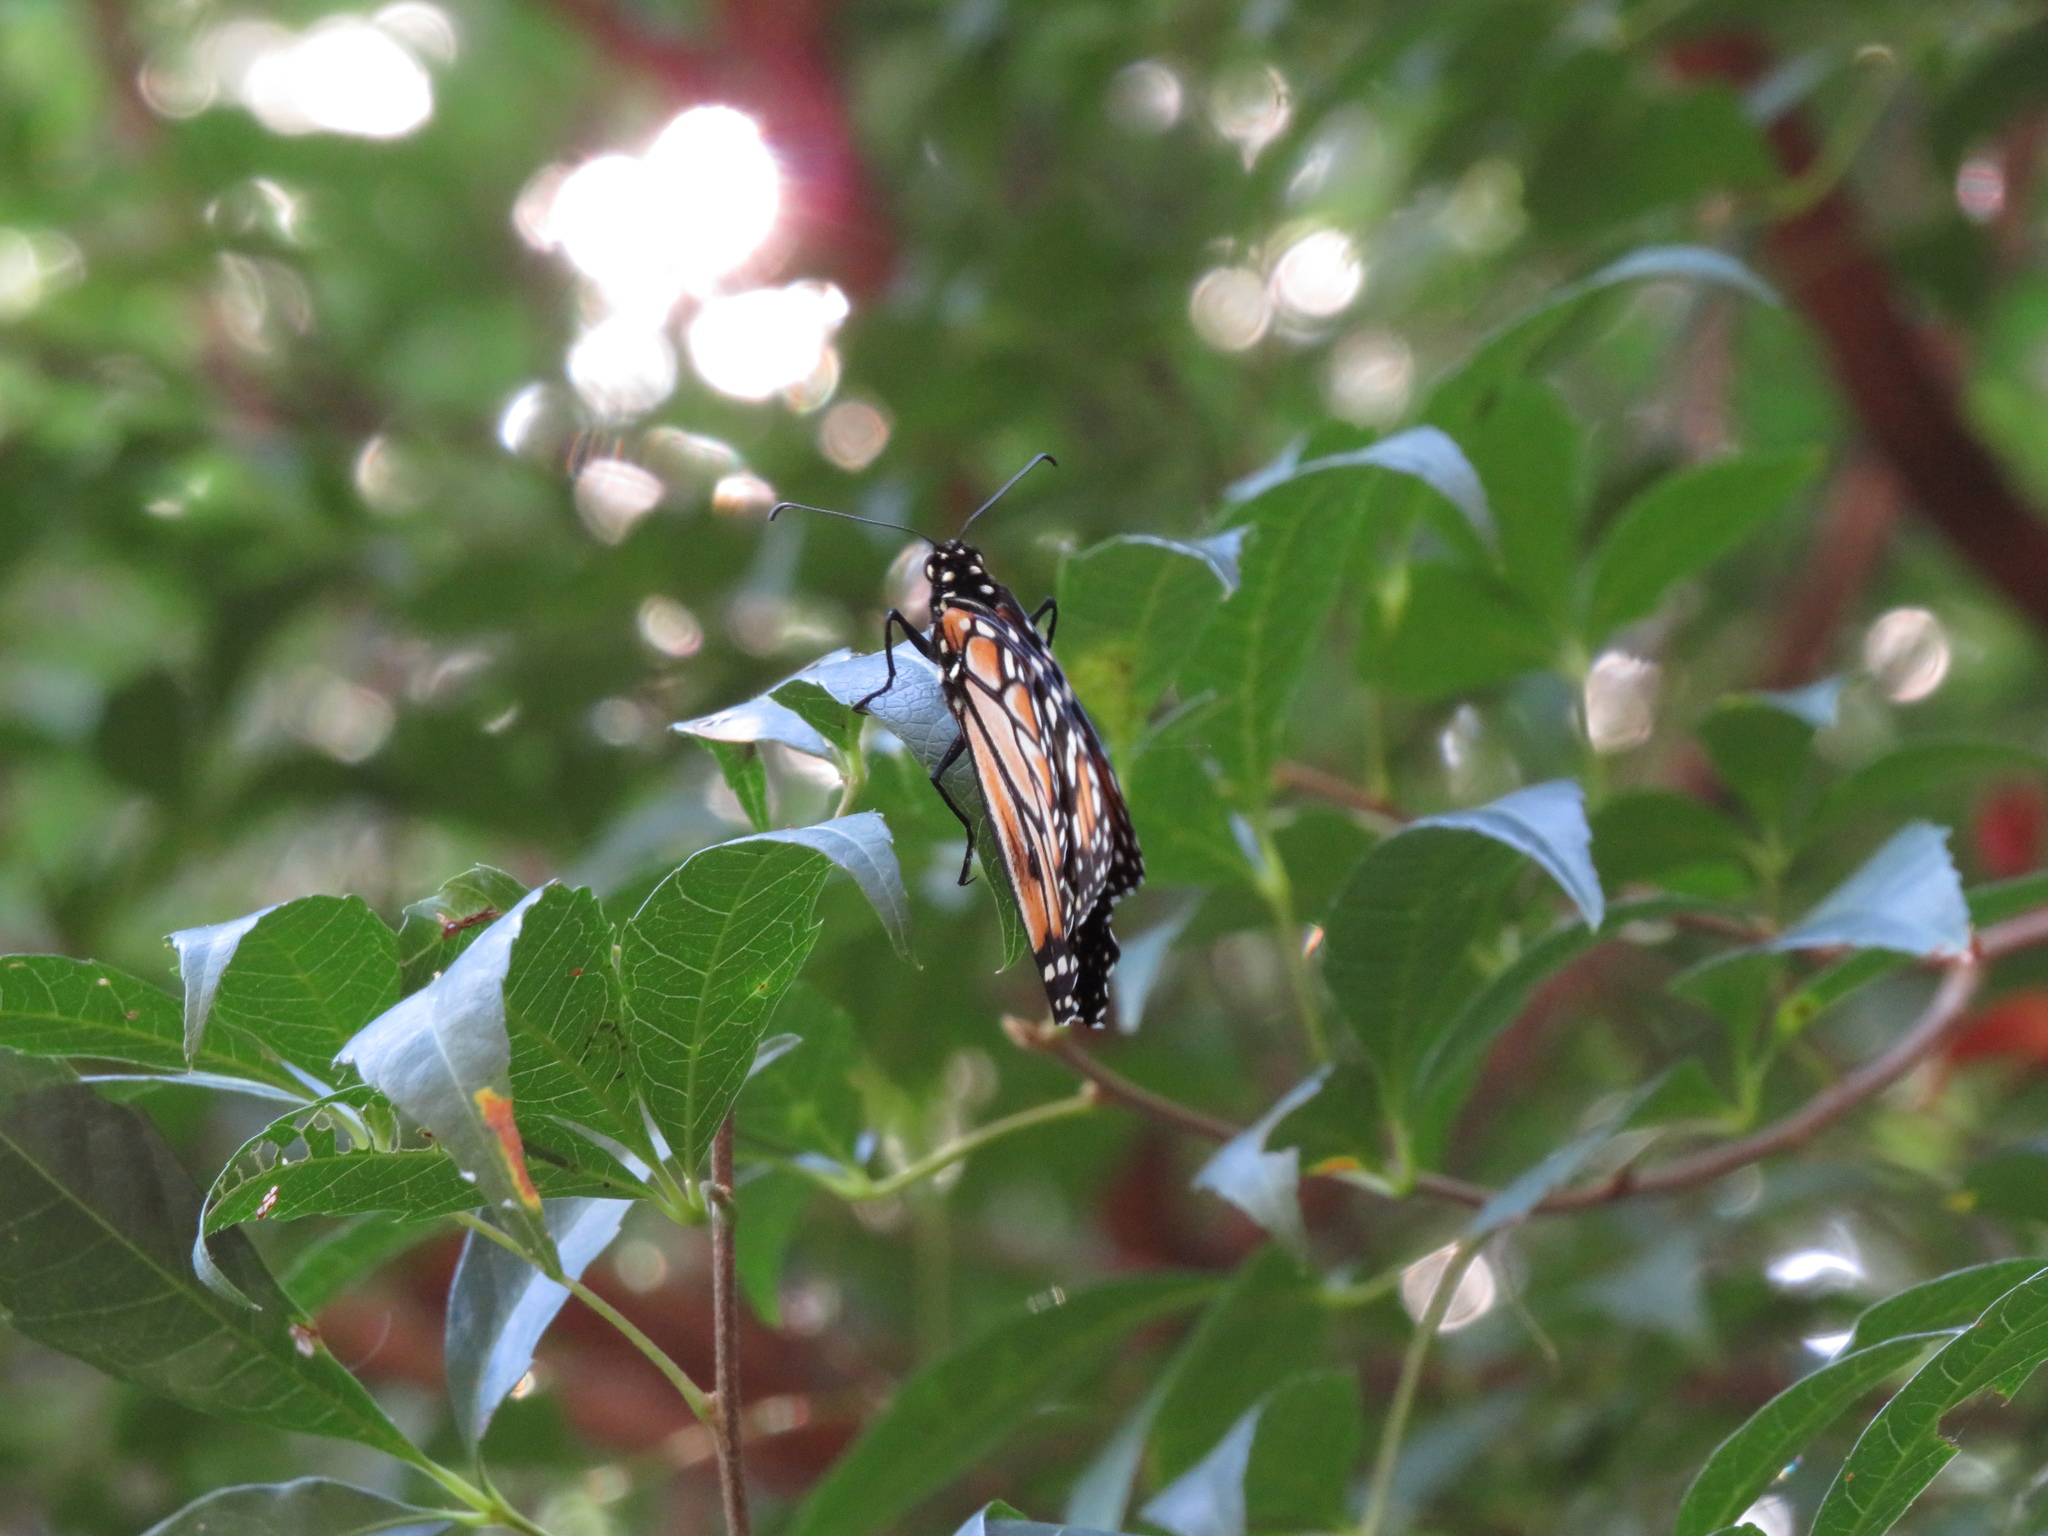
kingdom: Animalia
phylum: Arthropoda
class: Insecta
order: Lepidoptera
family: Nymphalidae
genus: Danaus
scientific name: Danaus erippus
